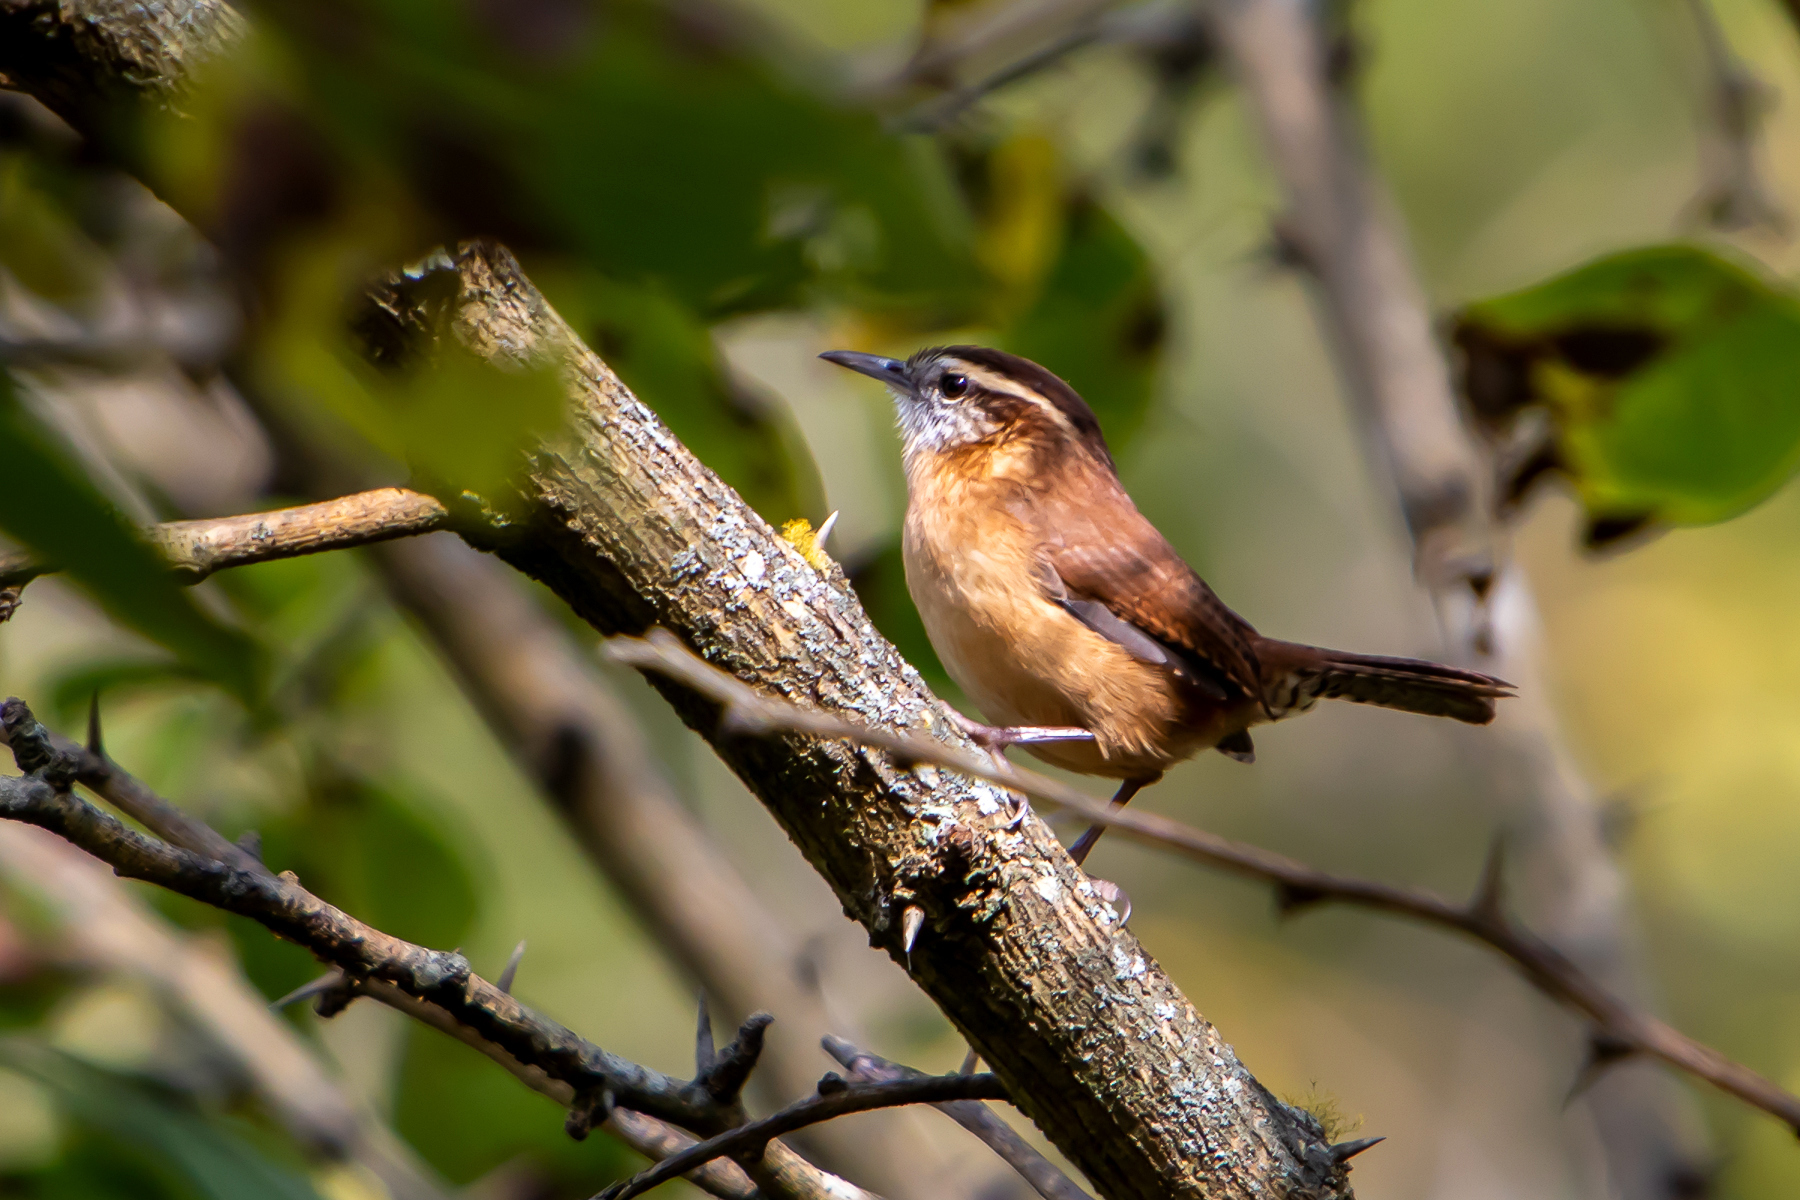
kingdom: Animalia
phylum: Chordata
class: Aves
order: Passeriformes
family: Troglodytidae
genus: Thryothorus
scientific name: Thryothorus ludovicianus
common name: Carolina wren
